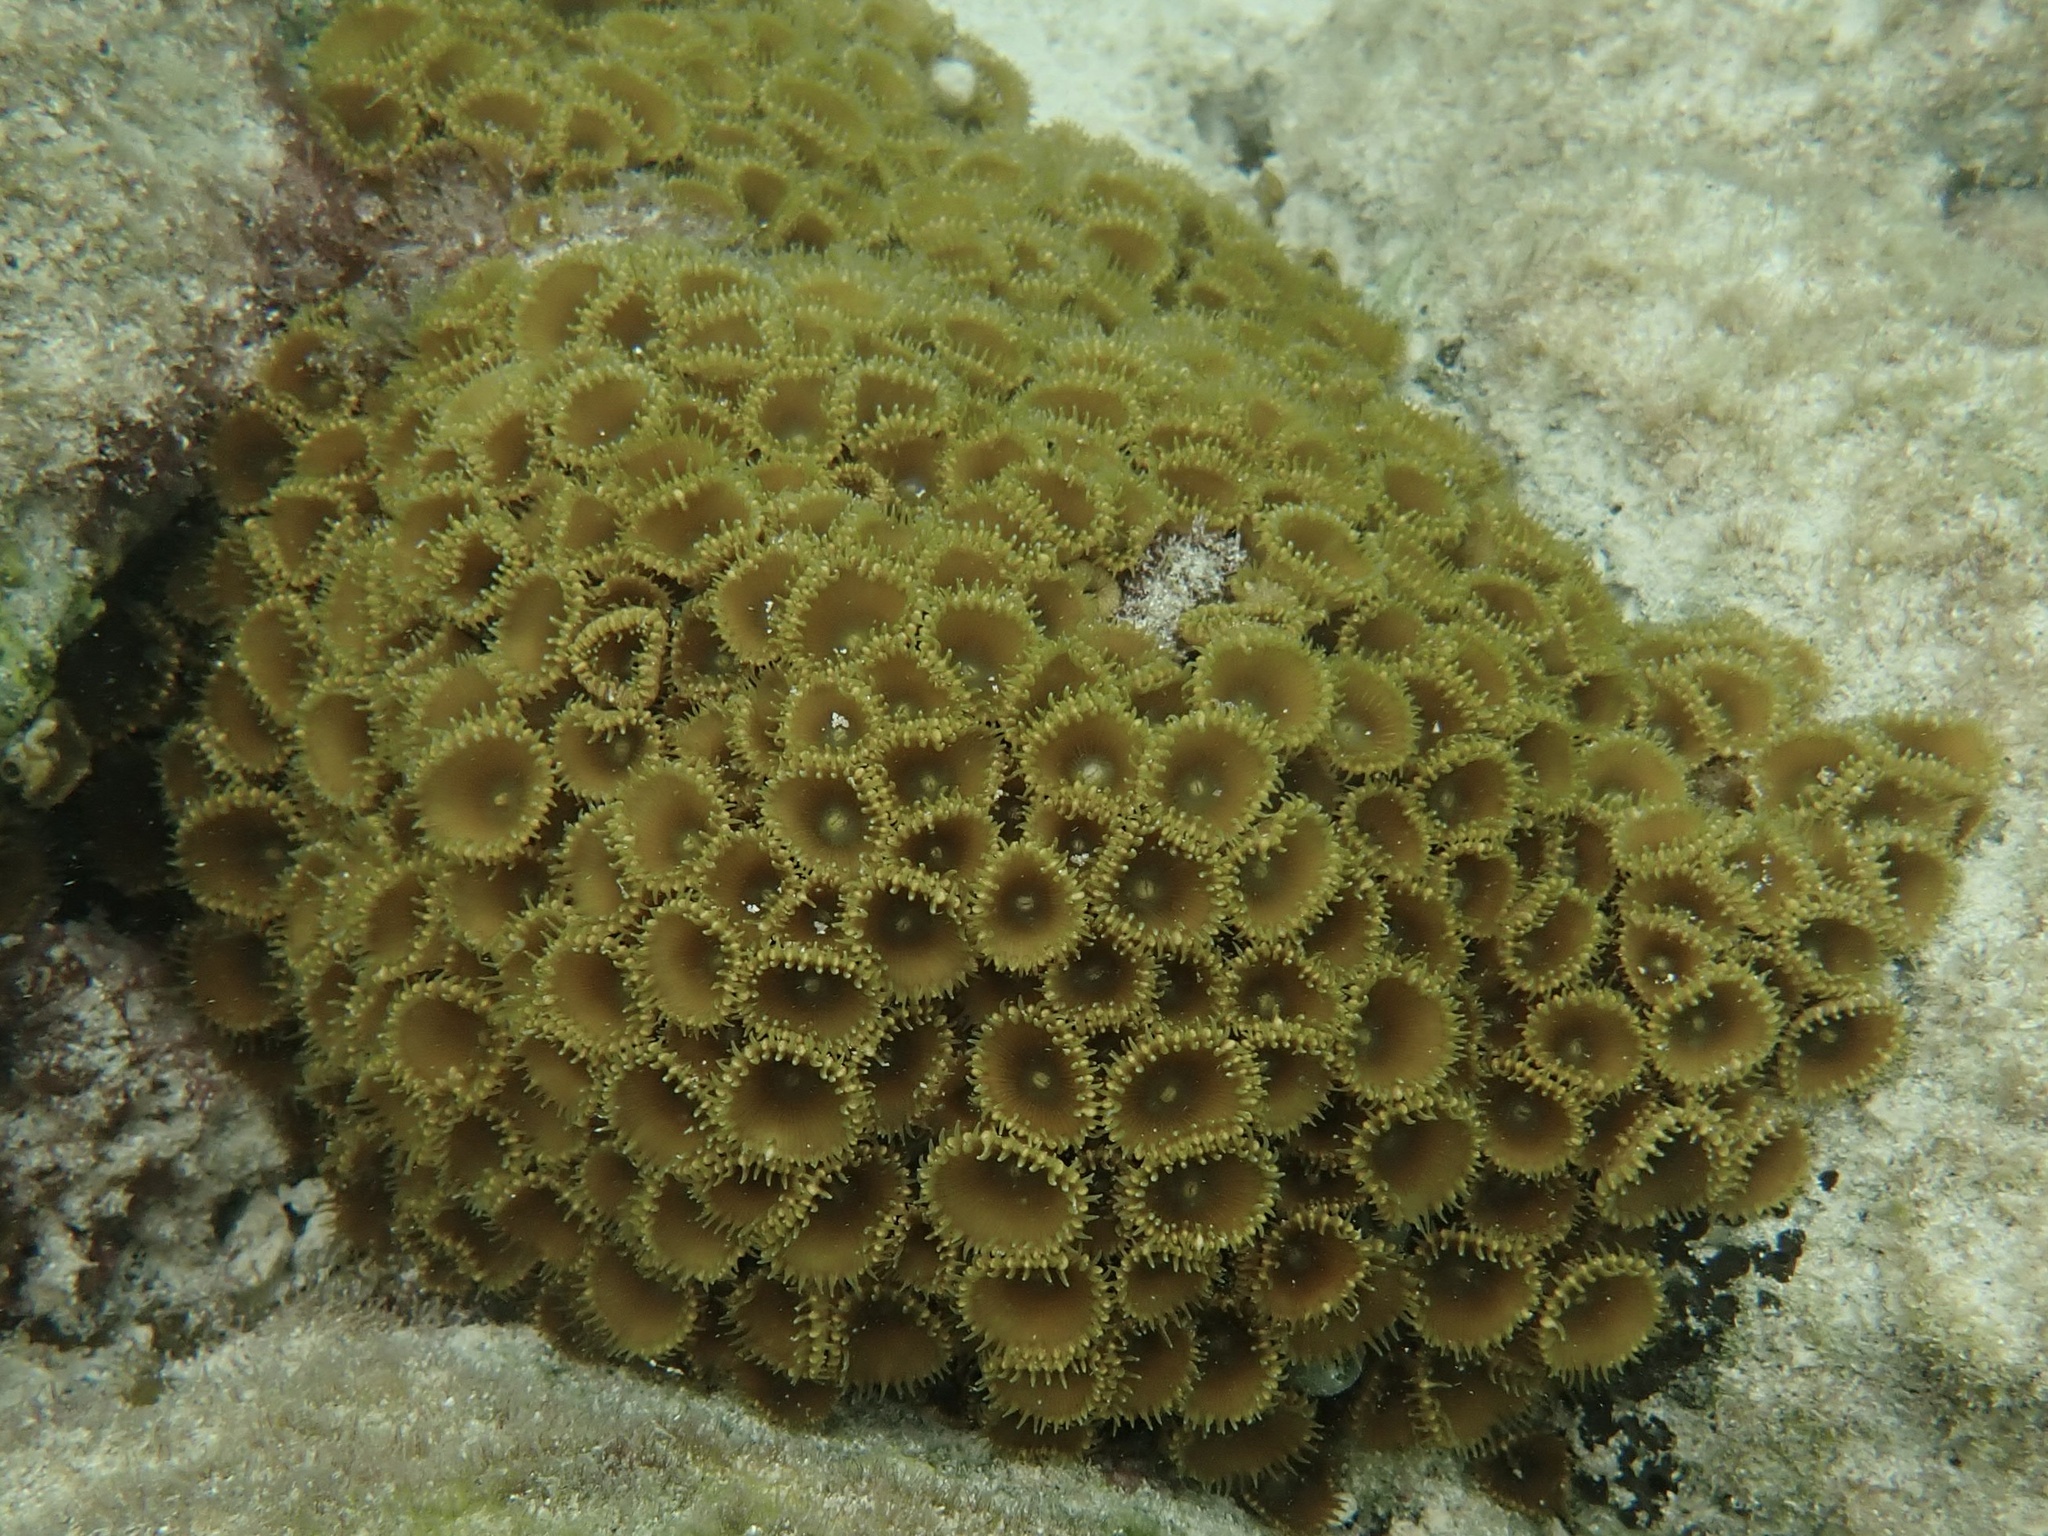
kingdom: Animalia
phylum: Cnidaria
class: Anthozoa
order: Zoantharia
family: Sphenopidae
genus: Palythoa
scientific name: Palythoa grandiflora
